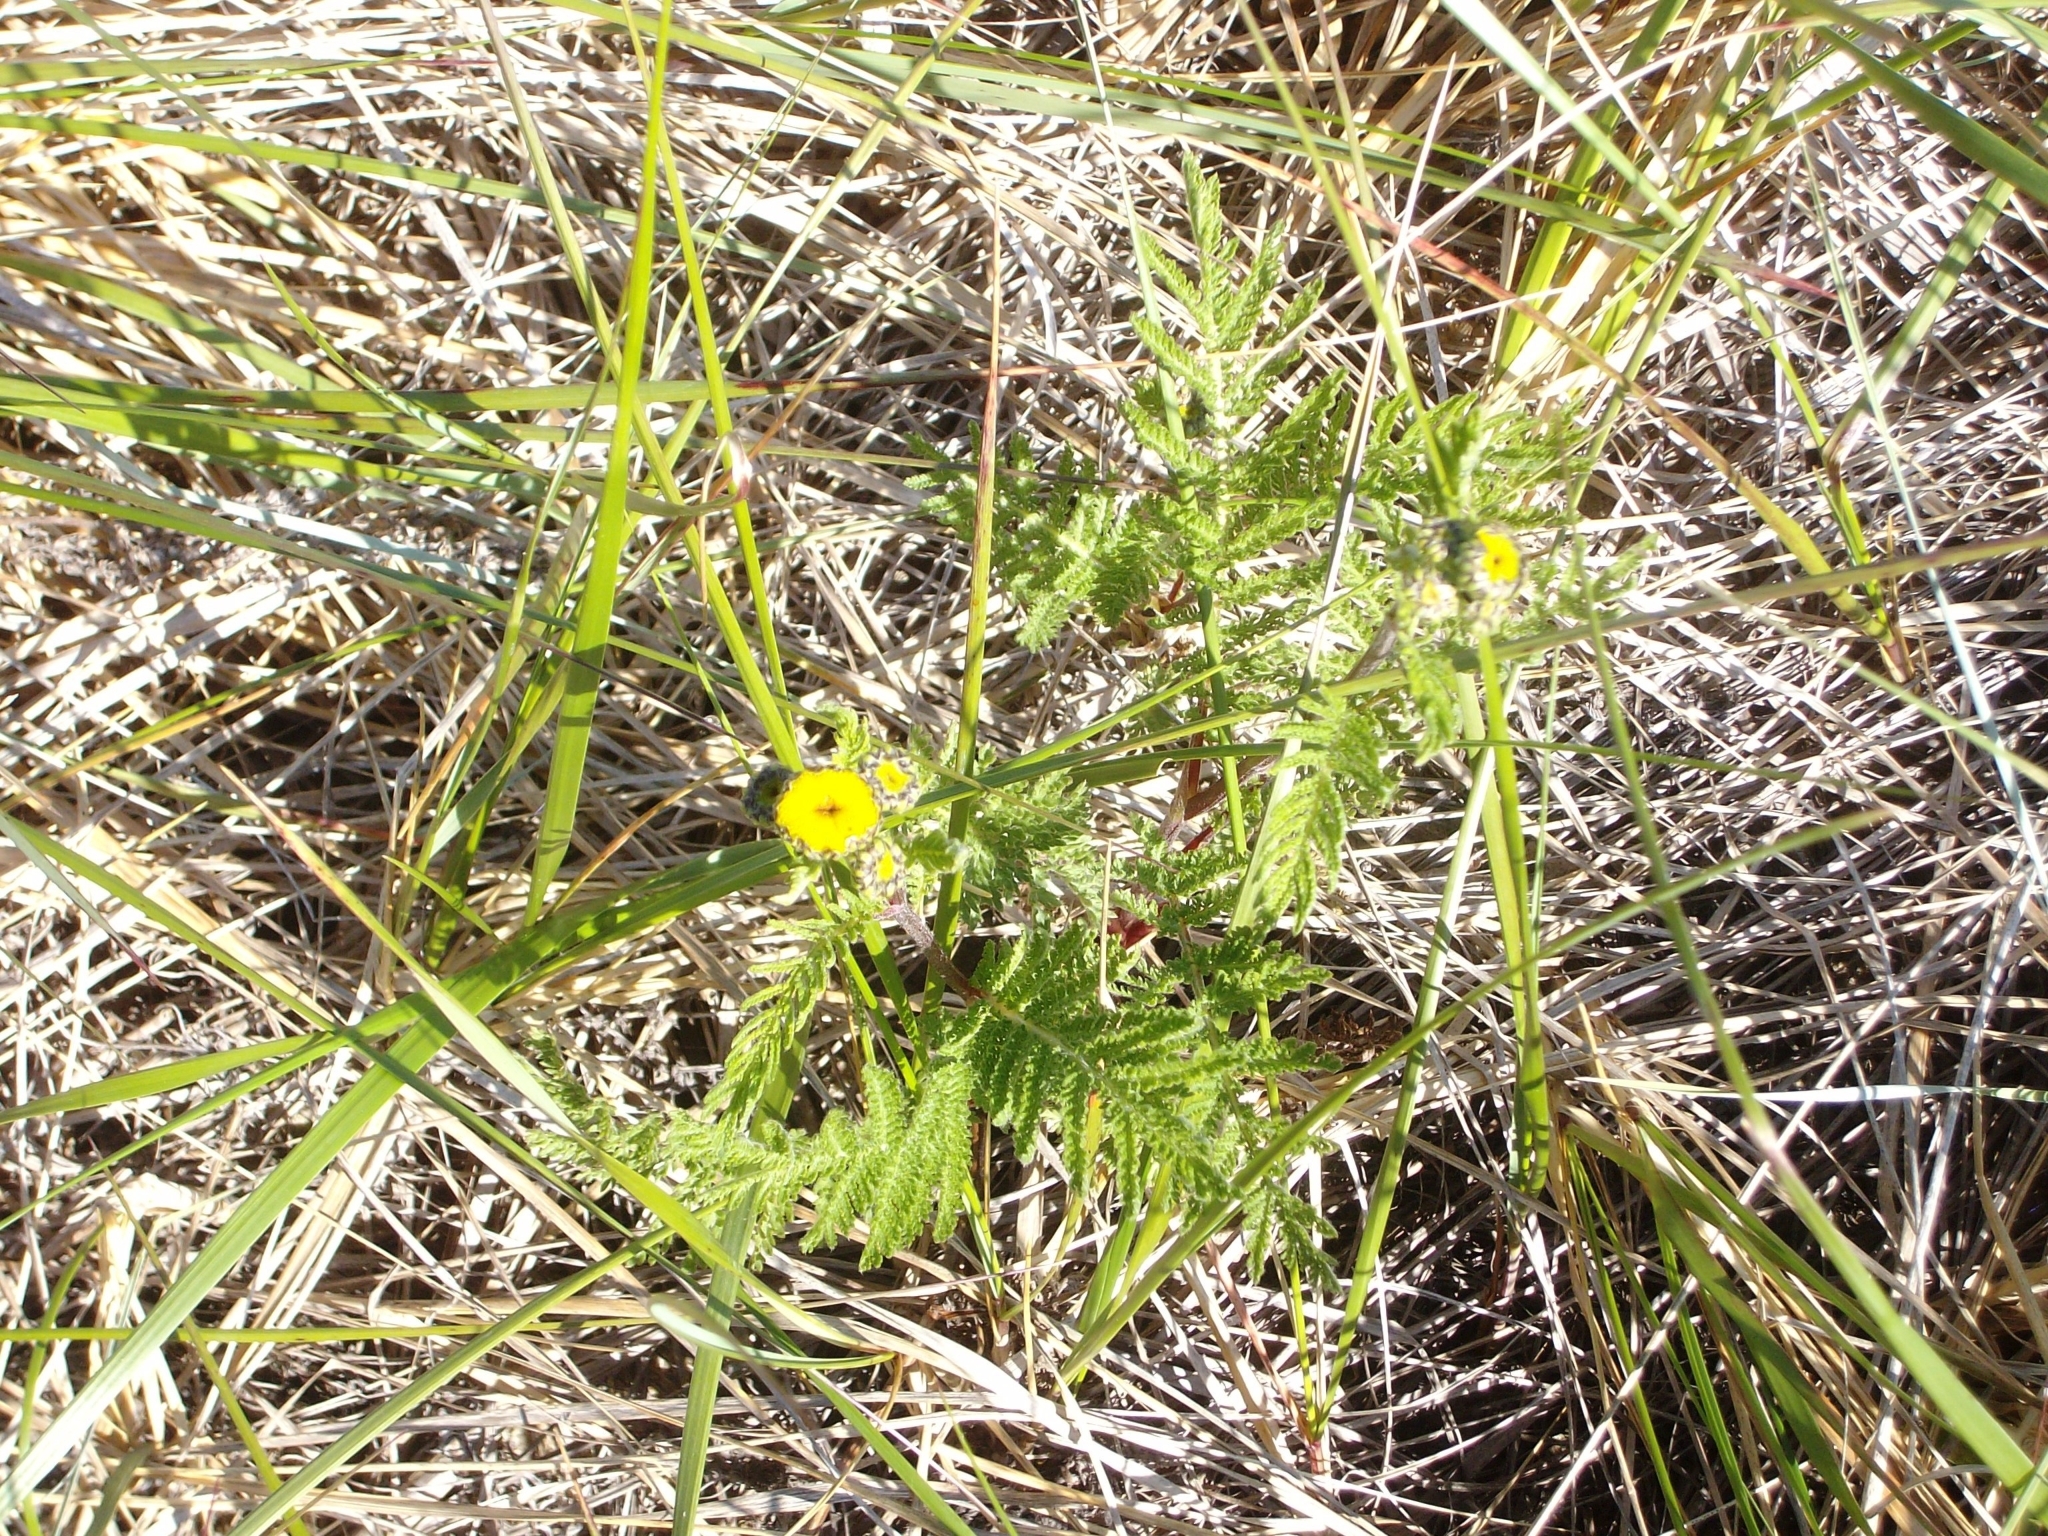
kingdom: Plantae
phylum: Tracheophyta
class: Magnoliopsida
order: Asterales
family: Asteraceae
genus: Tanacetum
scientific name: Tanacetum bipinnatum
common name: Dwarf tansy
